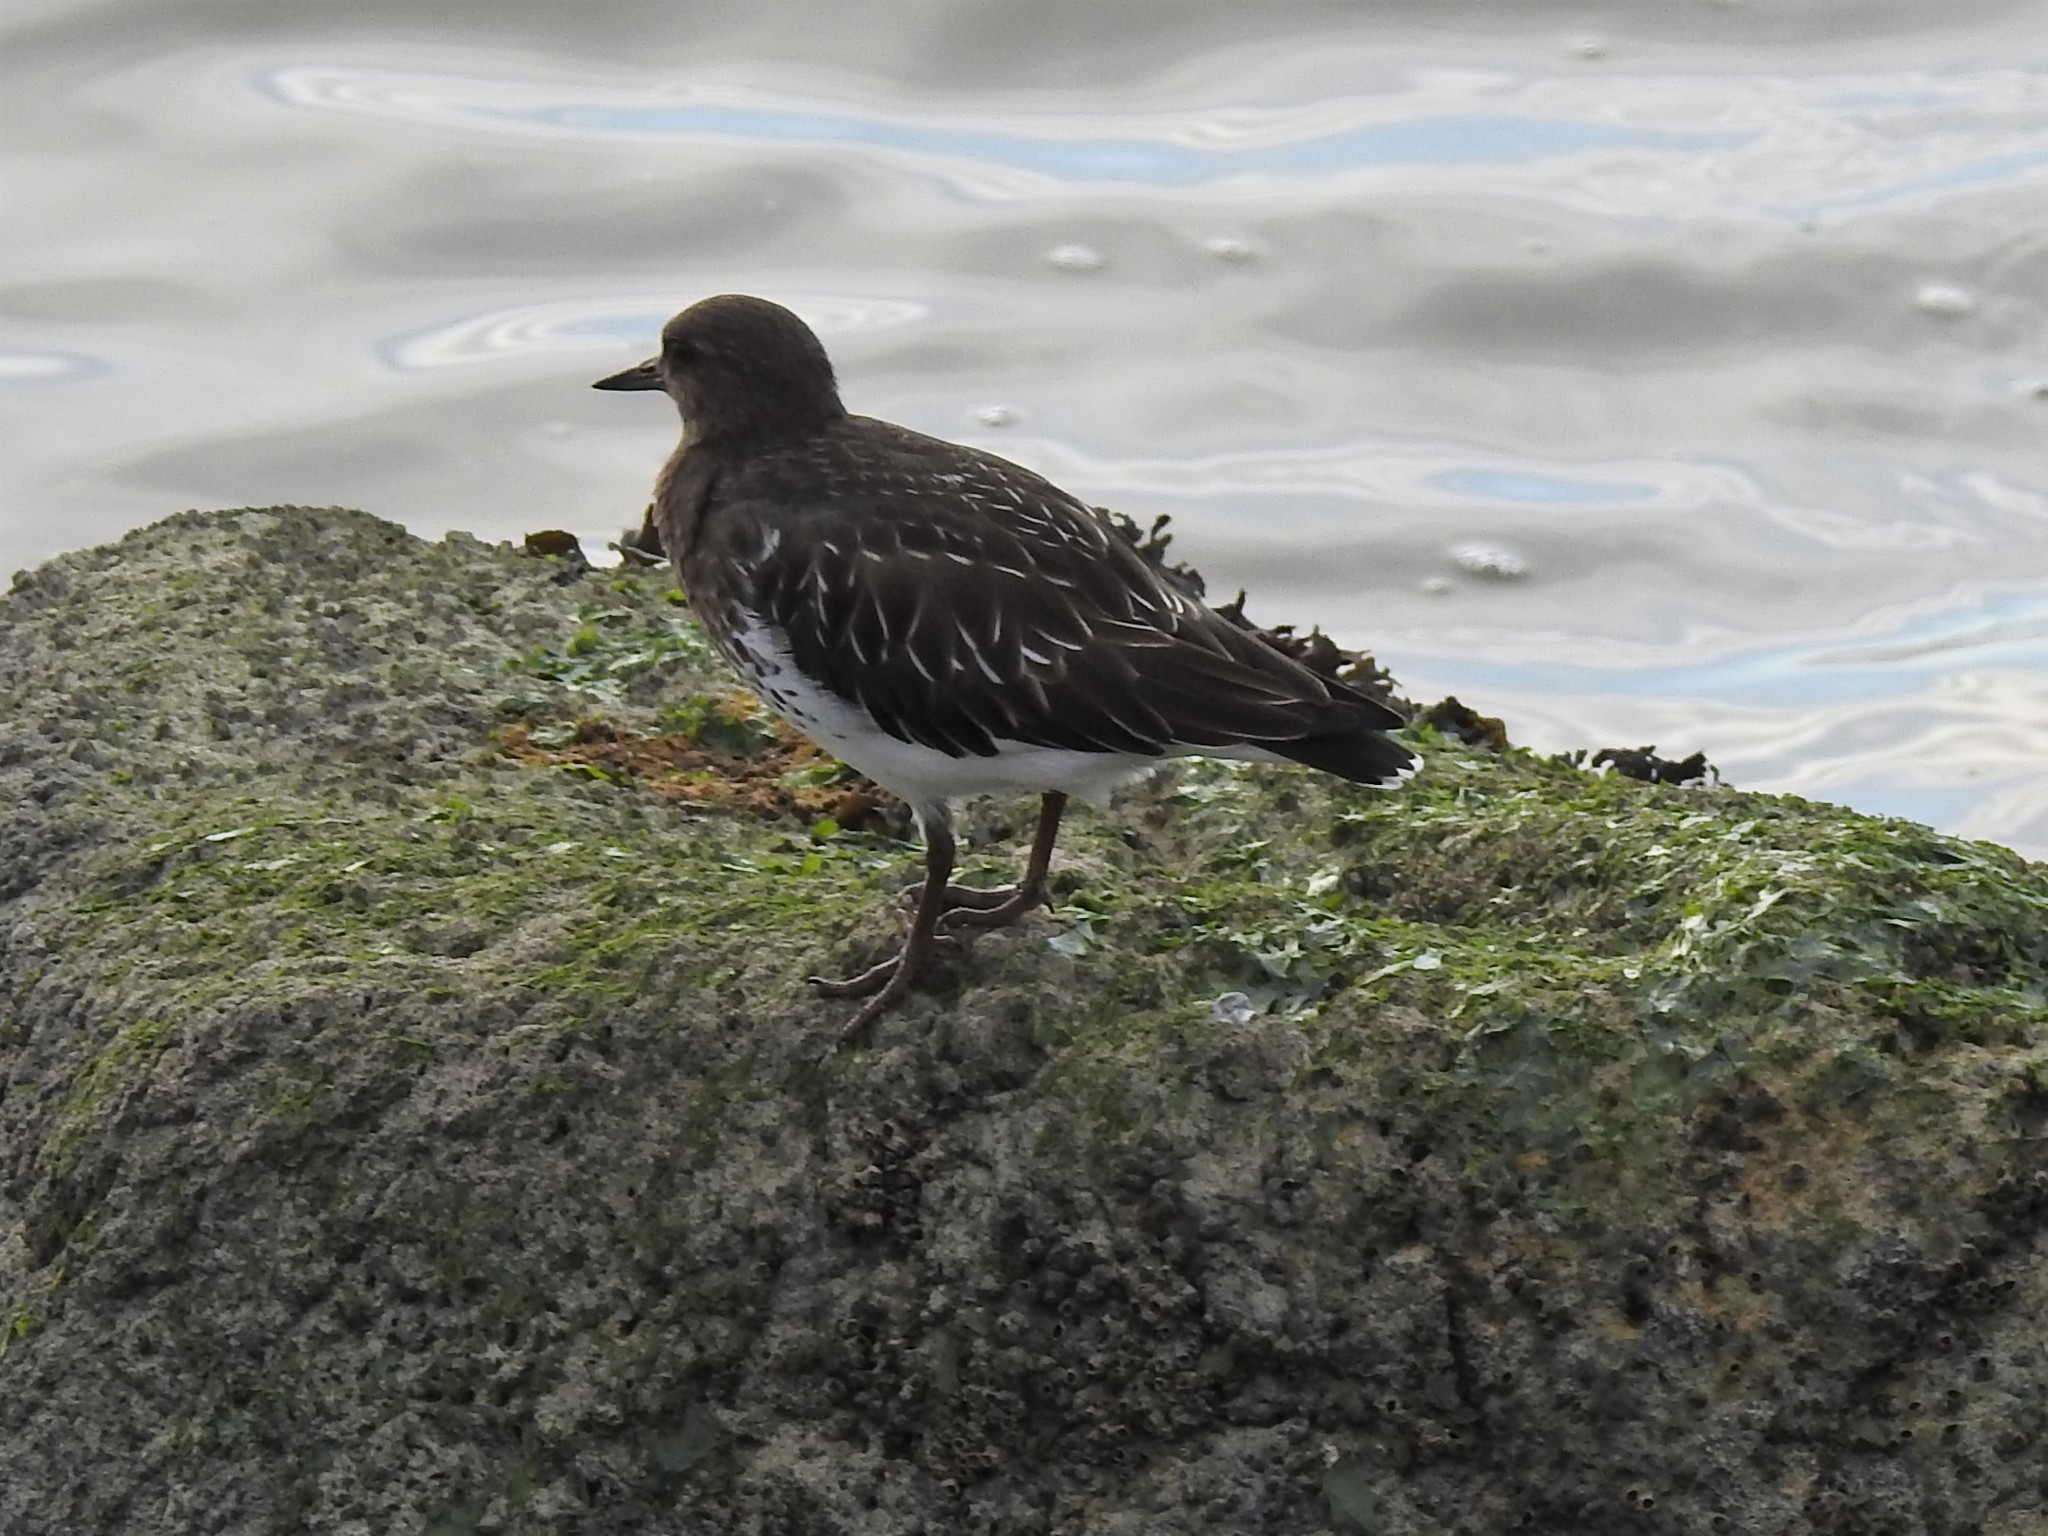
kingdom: Animalia
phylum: Chordata
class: Aves
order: Charadriiformes
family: Scolopacidae
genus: Arenaria
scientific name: Arenaria melanocephala
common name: Black turnstone
